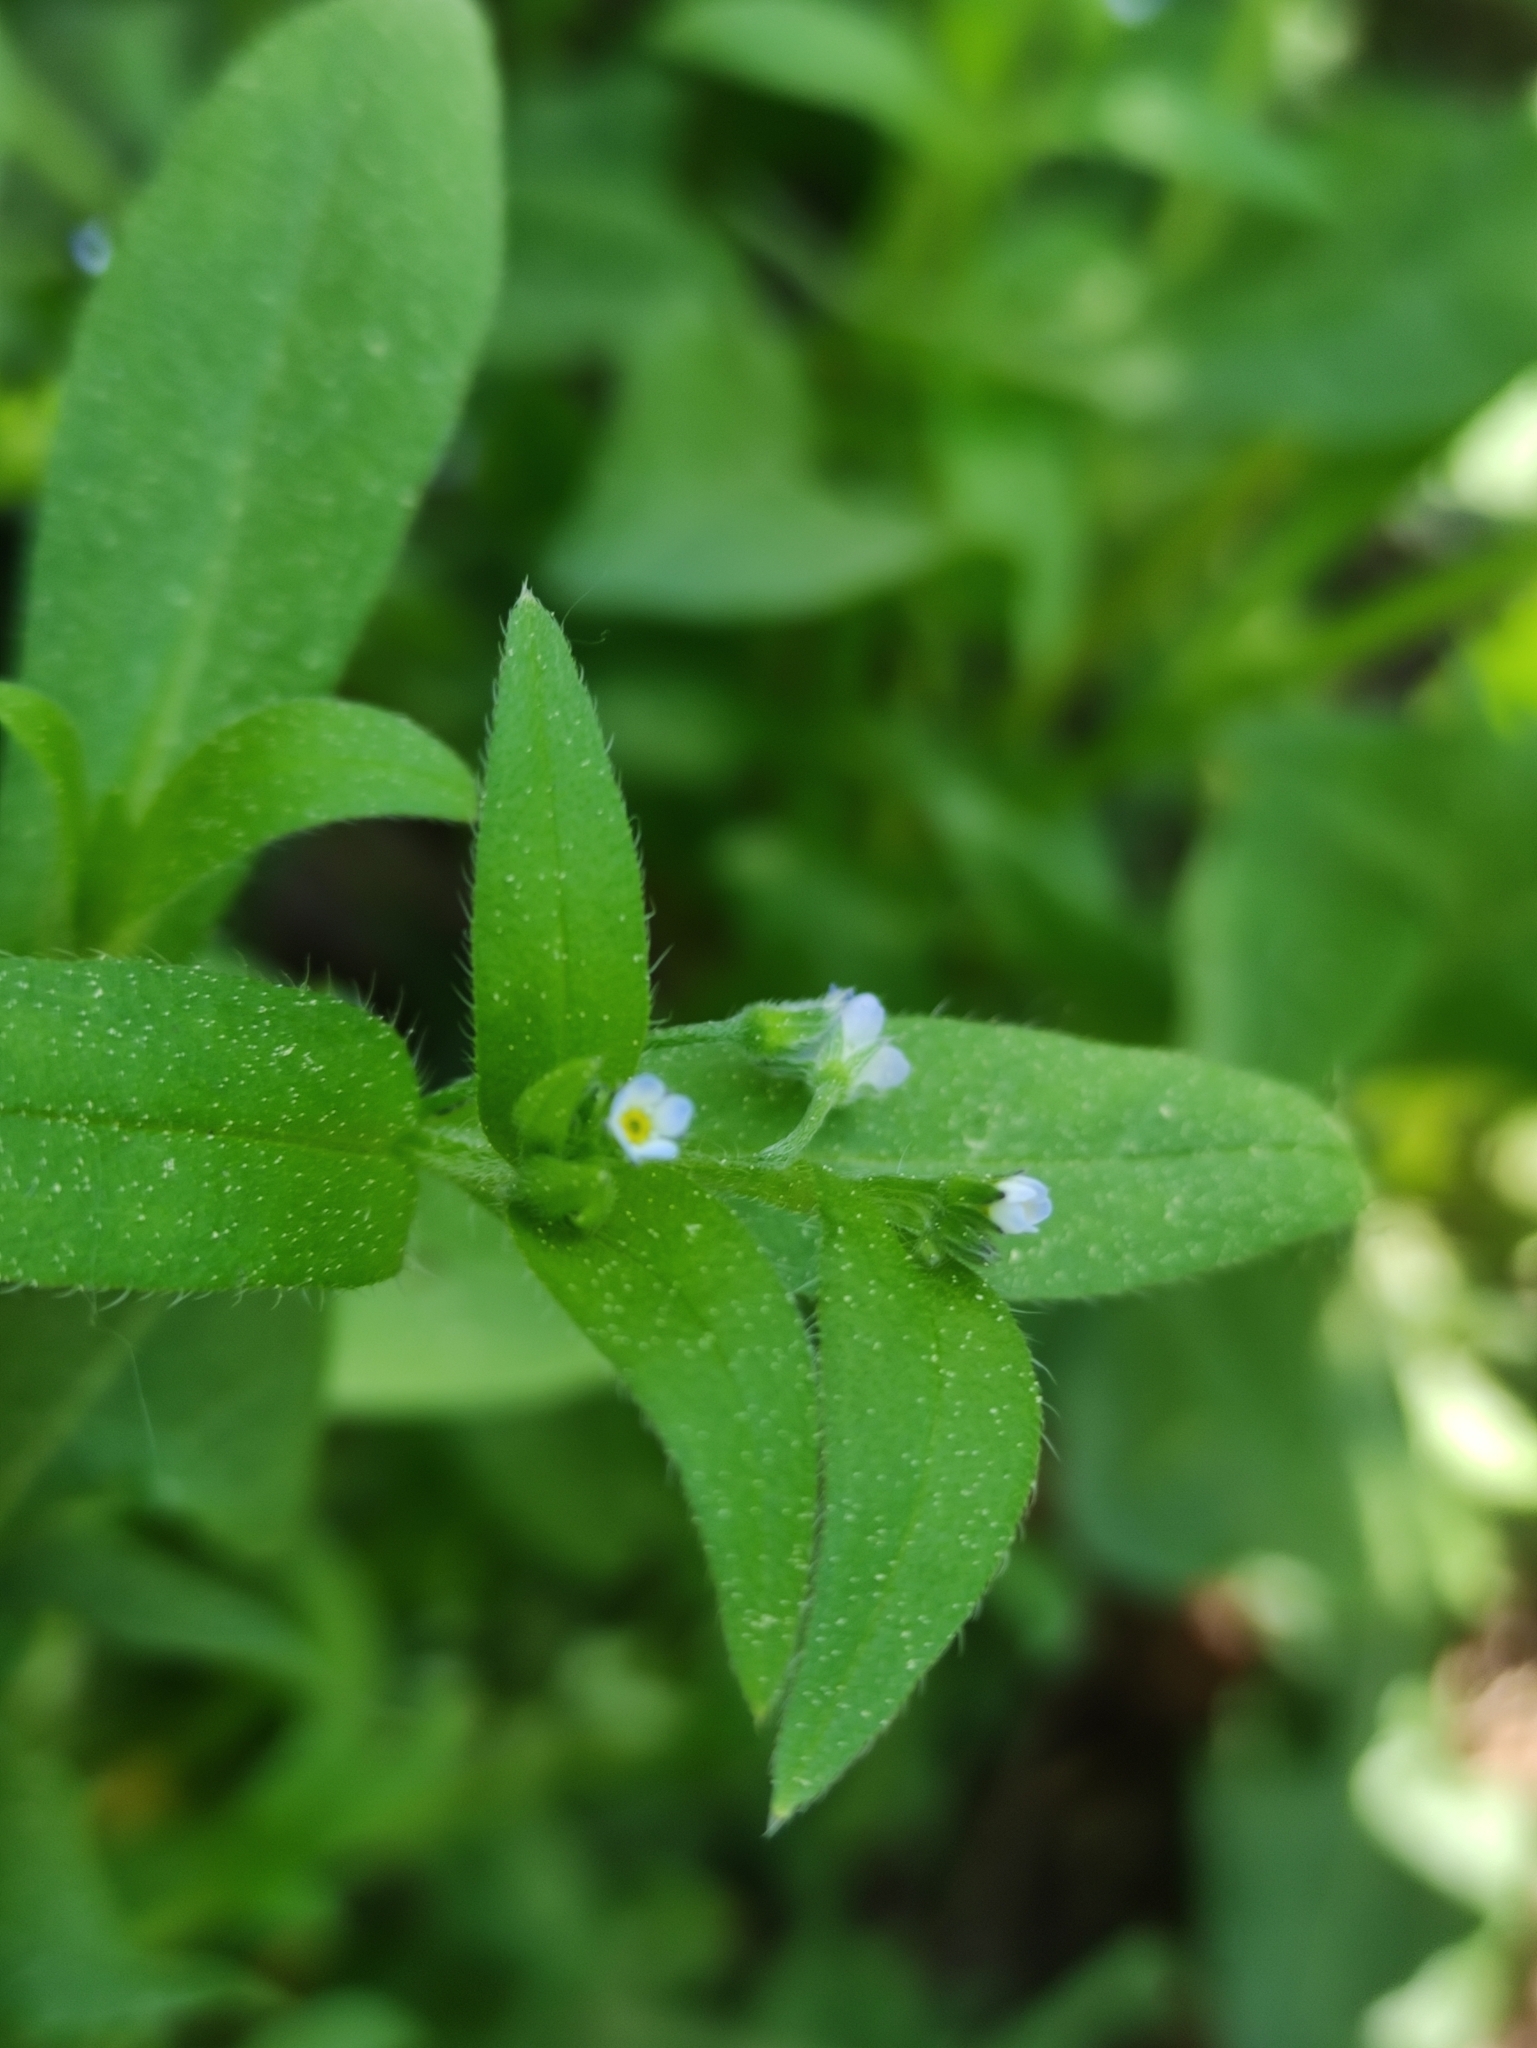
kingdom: Plantae
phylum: Tracheophyta
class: Magnoliopsida
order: Boraginales
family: Boraginaceae
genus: Myosotis
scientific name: Myosotis sparsiflora
